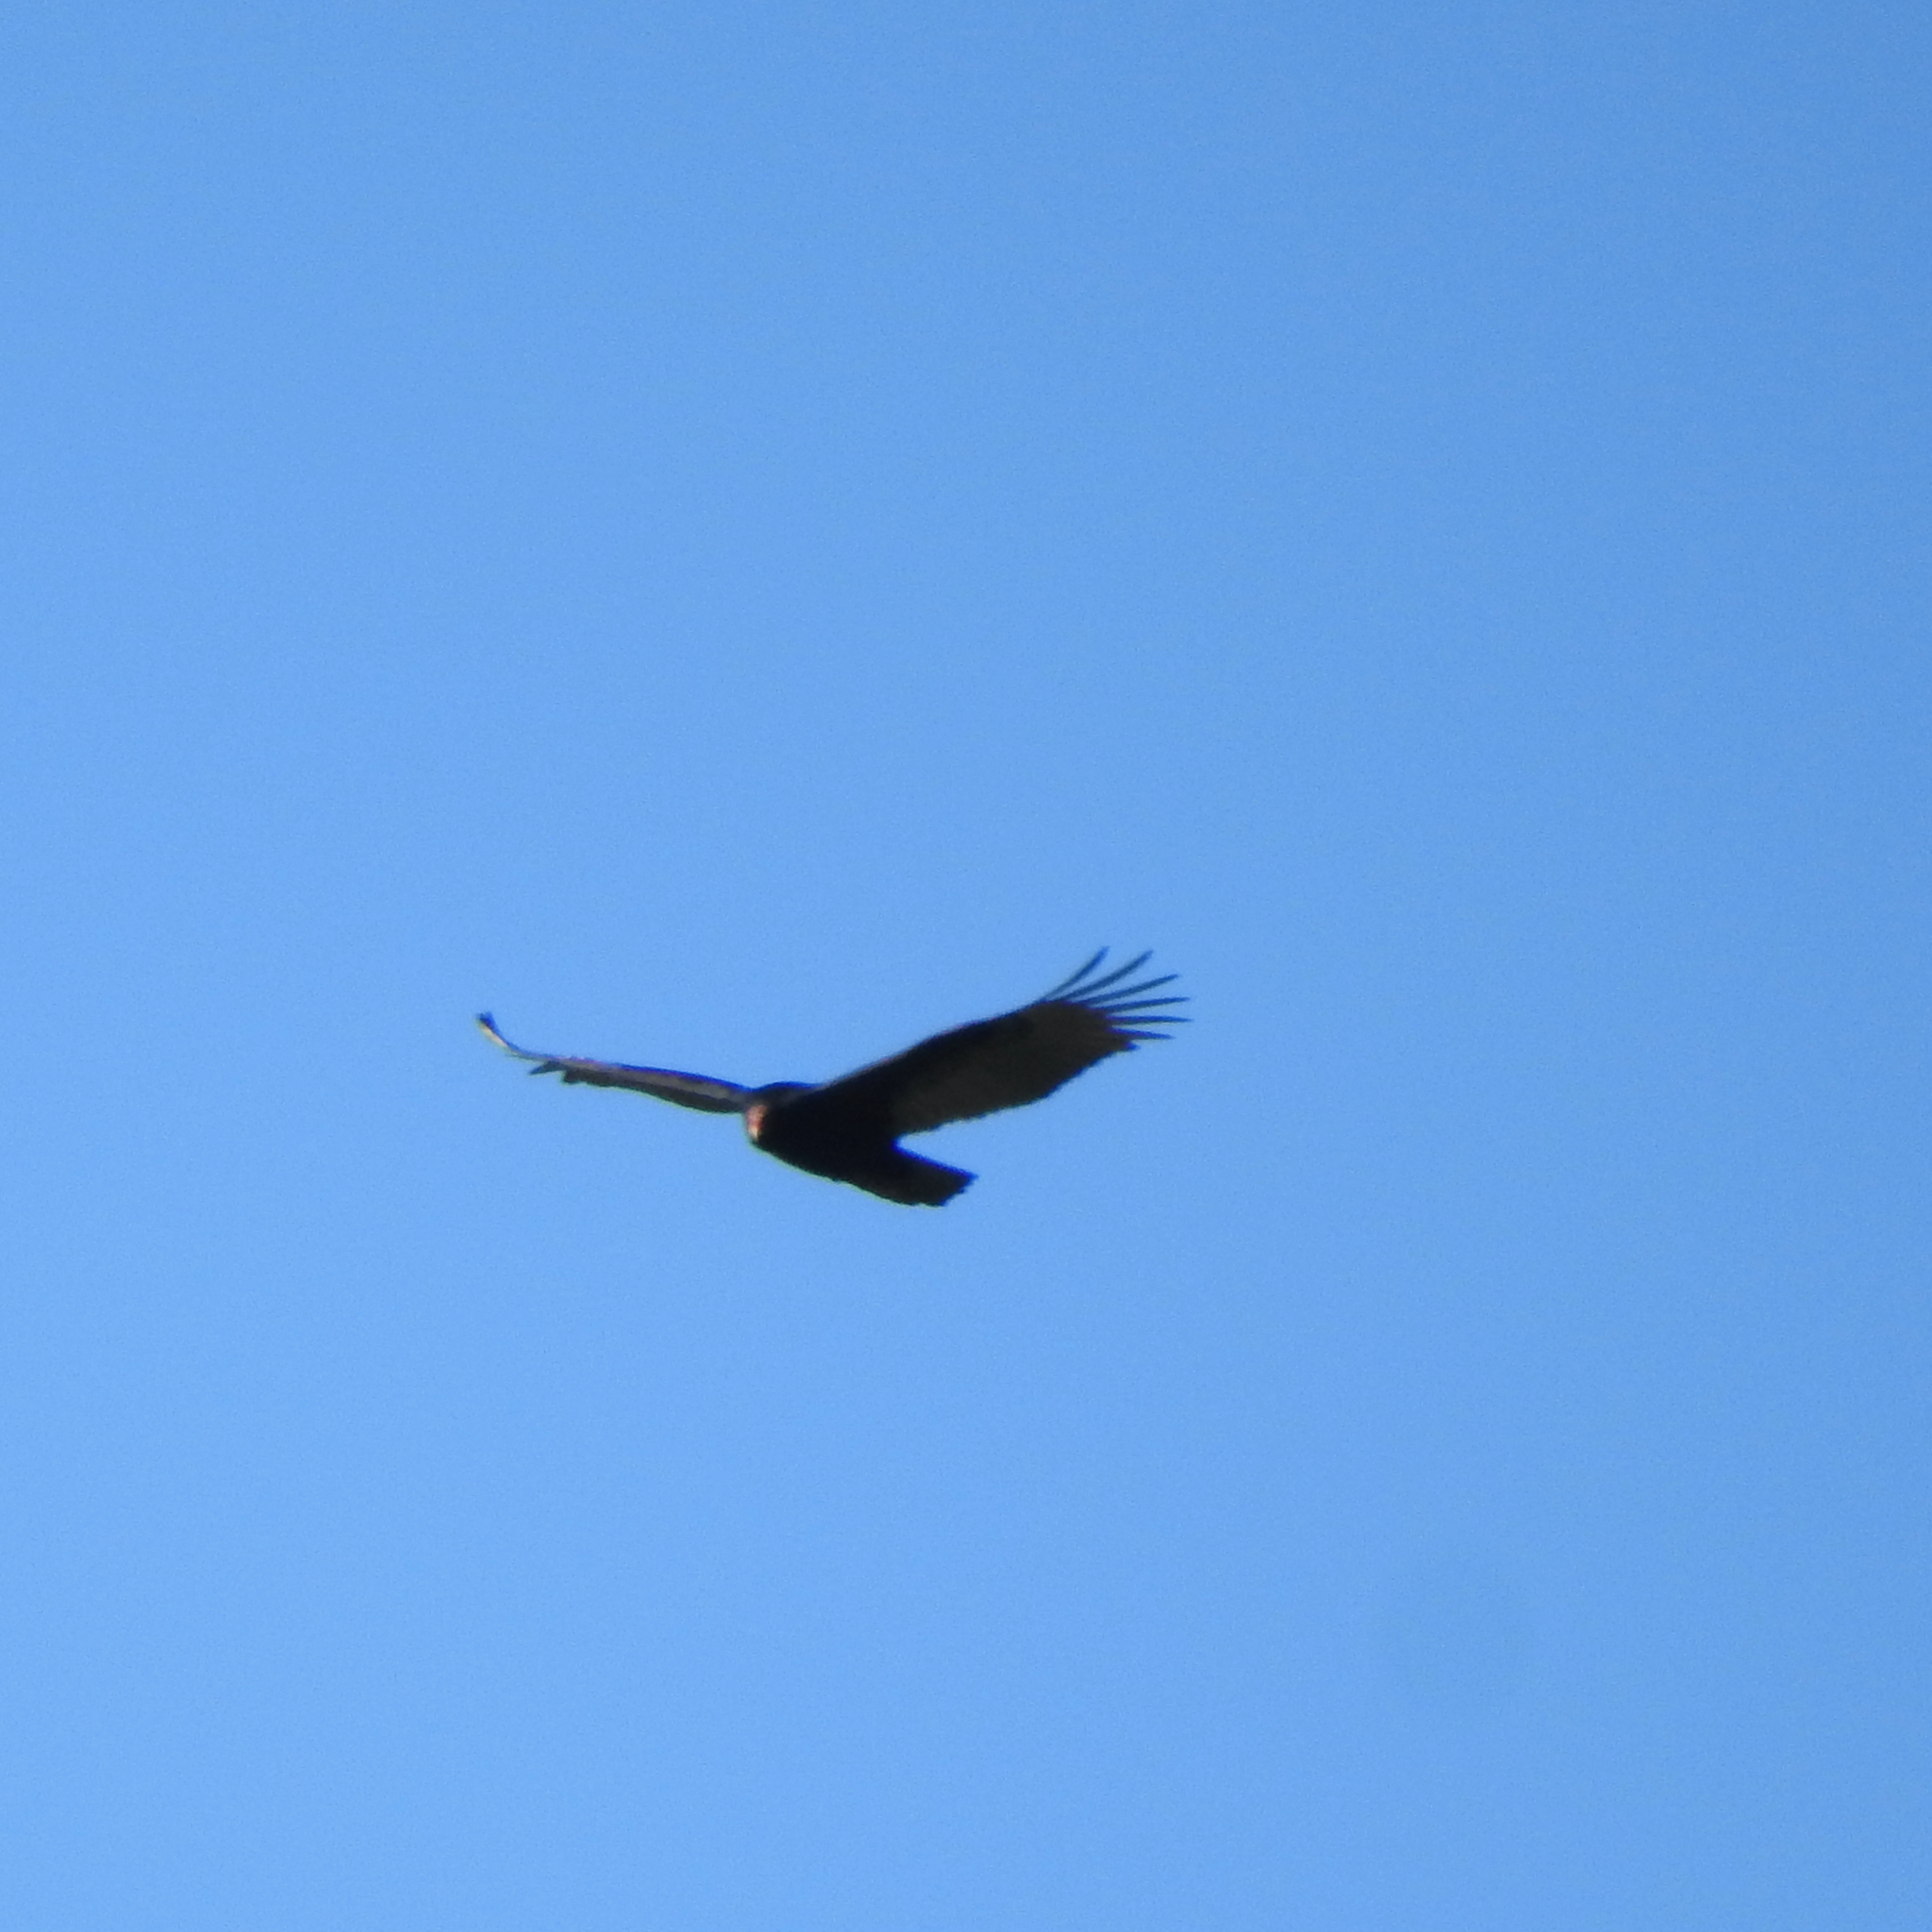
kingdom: Animalia
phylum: Chordata
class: Aves
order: Accipitriformes
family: Cathartidae
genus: Cathartes
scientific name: Cathartes aura
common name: Turkey vulture
